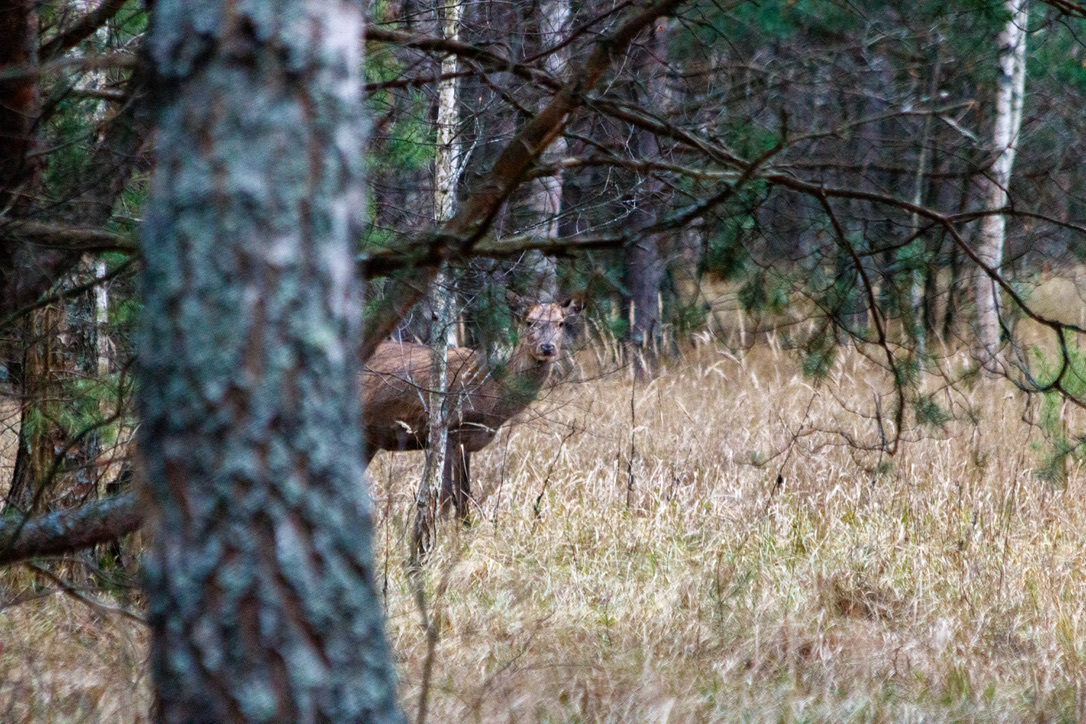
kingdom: Animalia
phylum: Chordata
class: Mammalia
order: Artiodactyla
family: Cervidae
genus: Cervus
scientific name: Cervus elaphus
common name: Red deer
